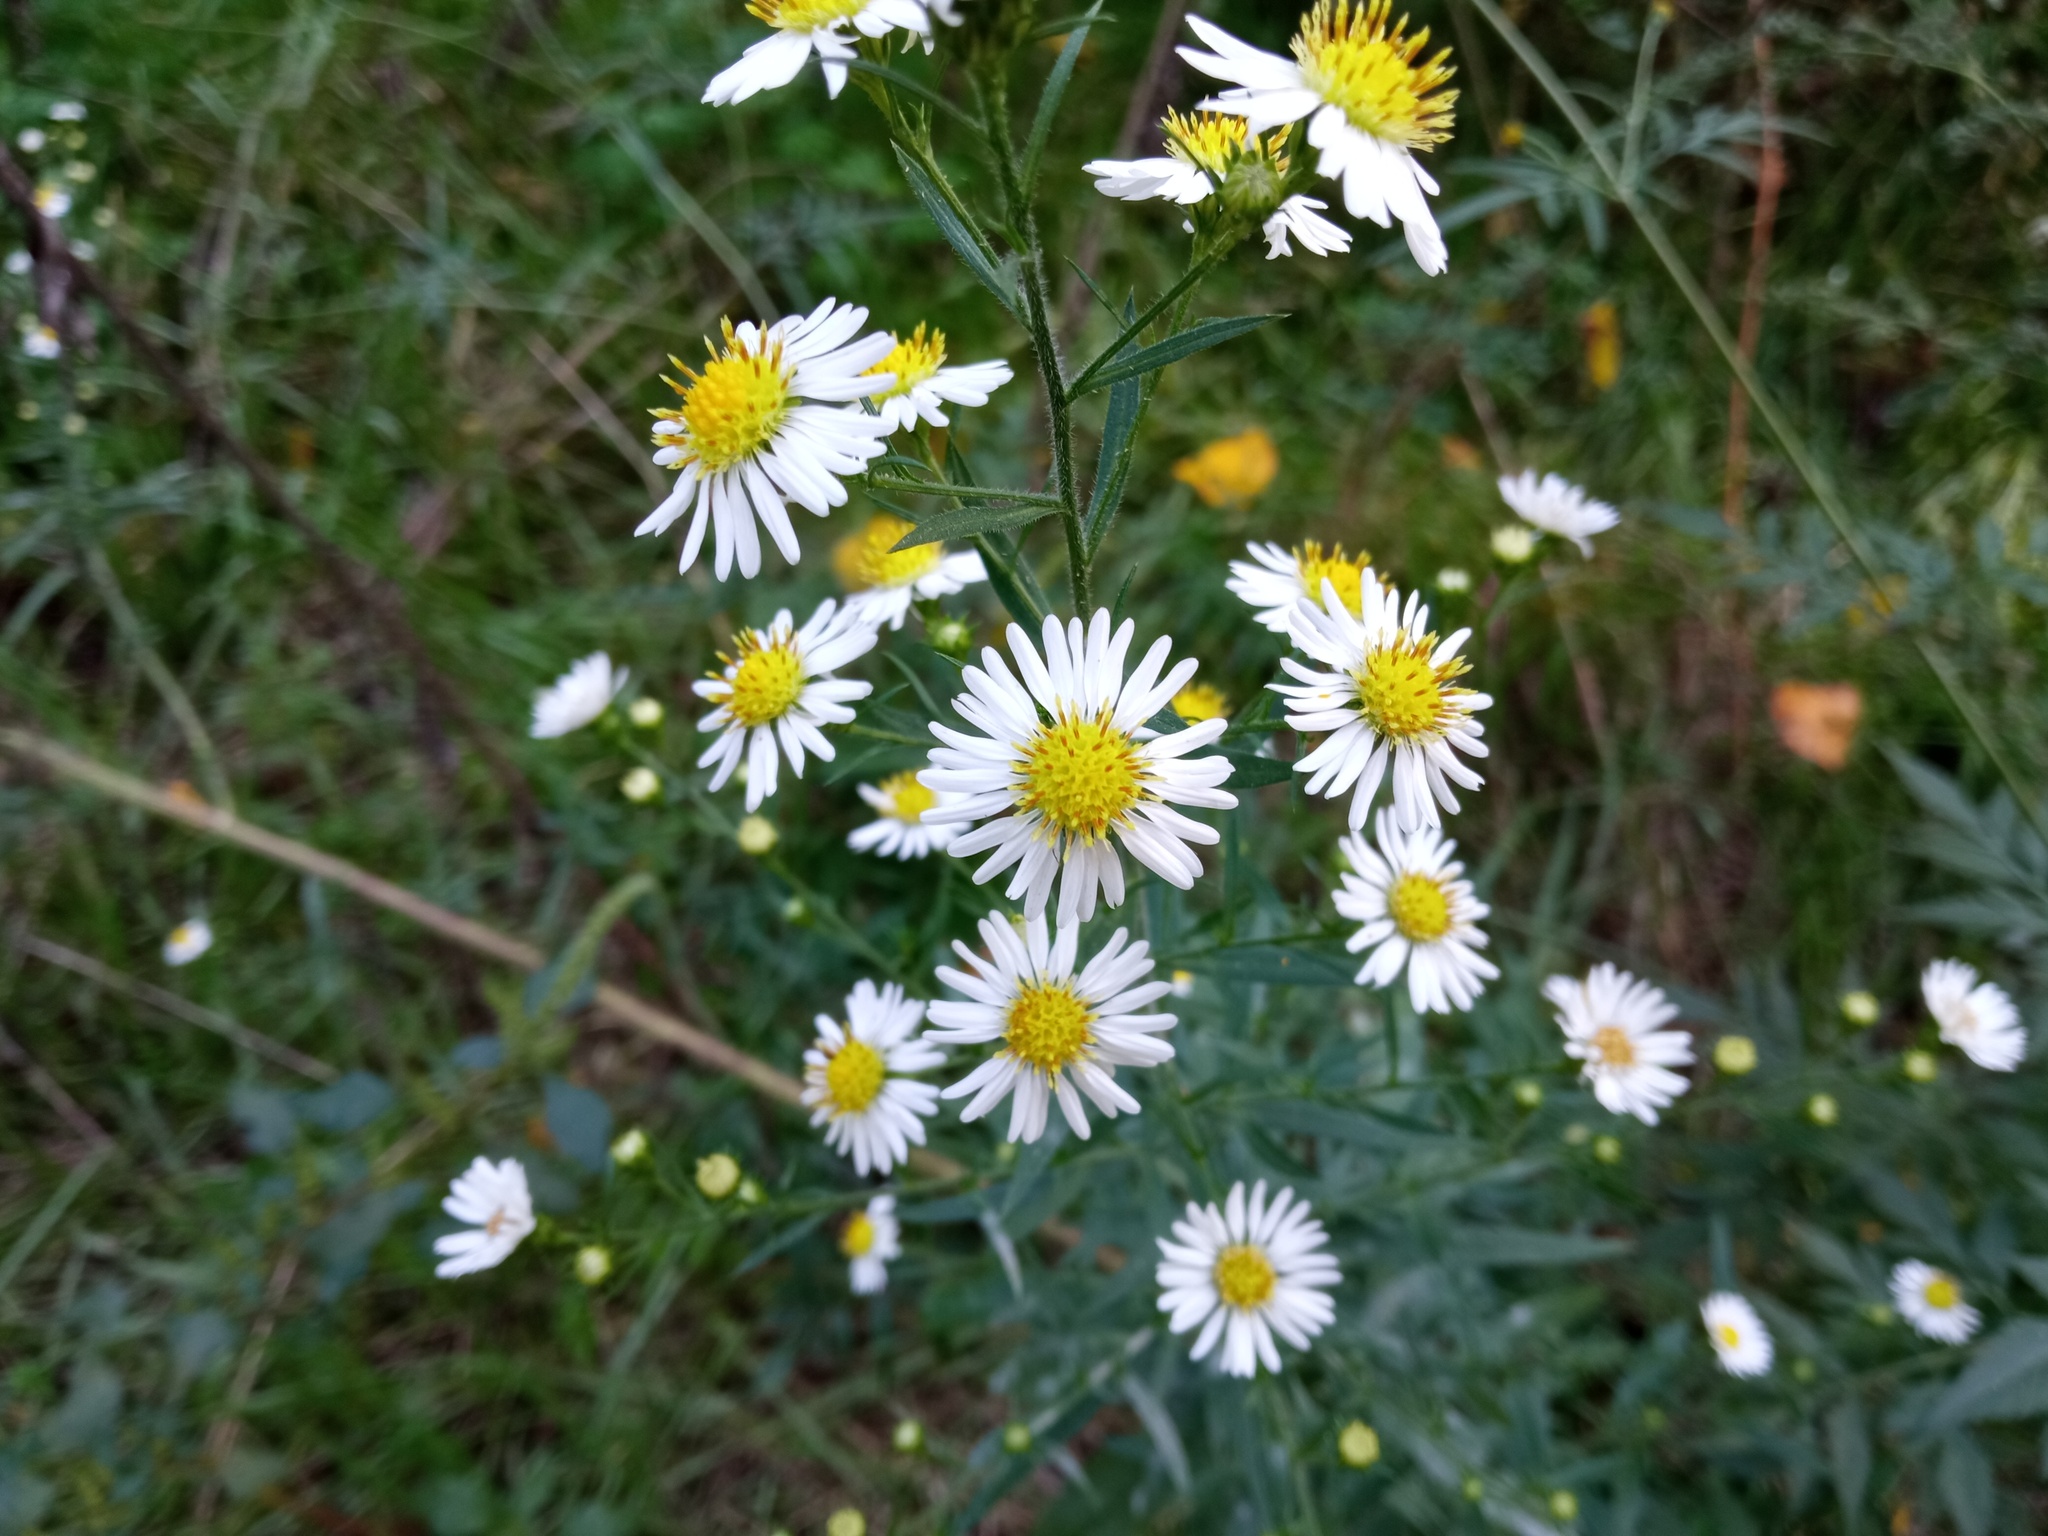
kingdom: Plantae
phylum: Tracheophyta
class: Magnoliopsida
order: Asterales
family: Asteraceae
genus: Symphyotrichum
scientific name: Symphyotrichum pilosum
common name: Awl aster
